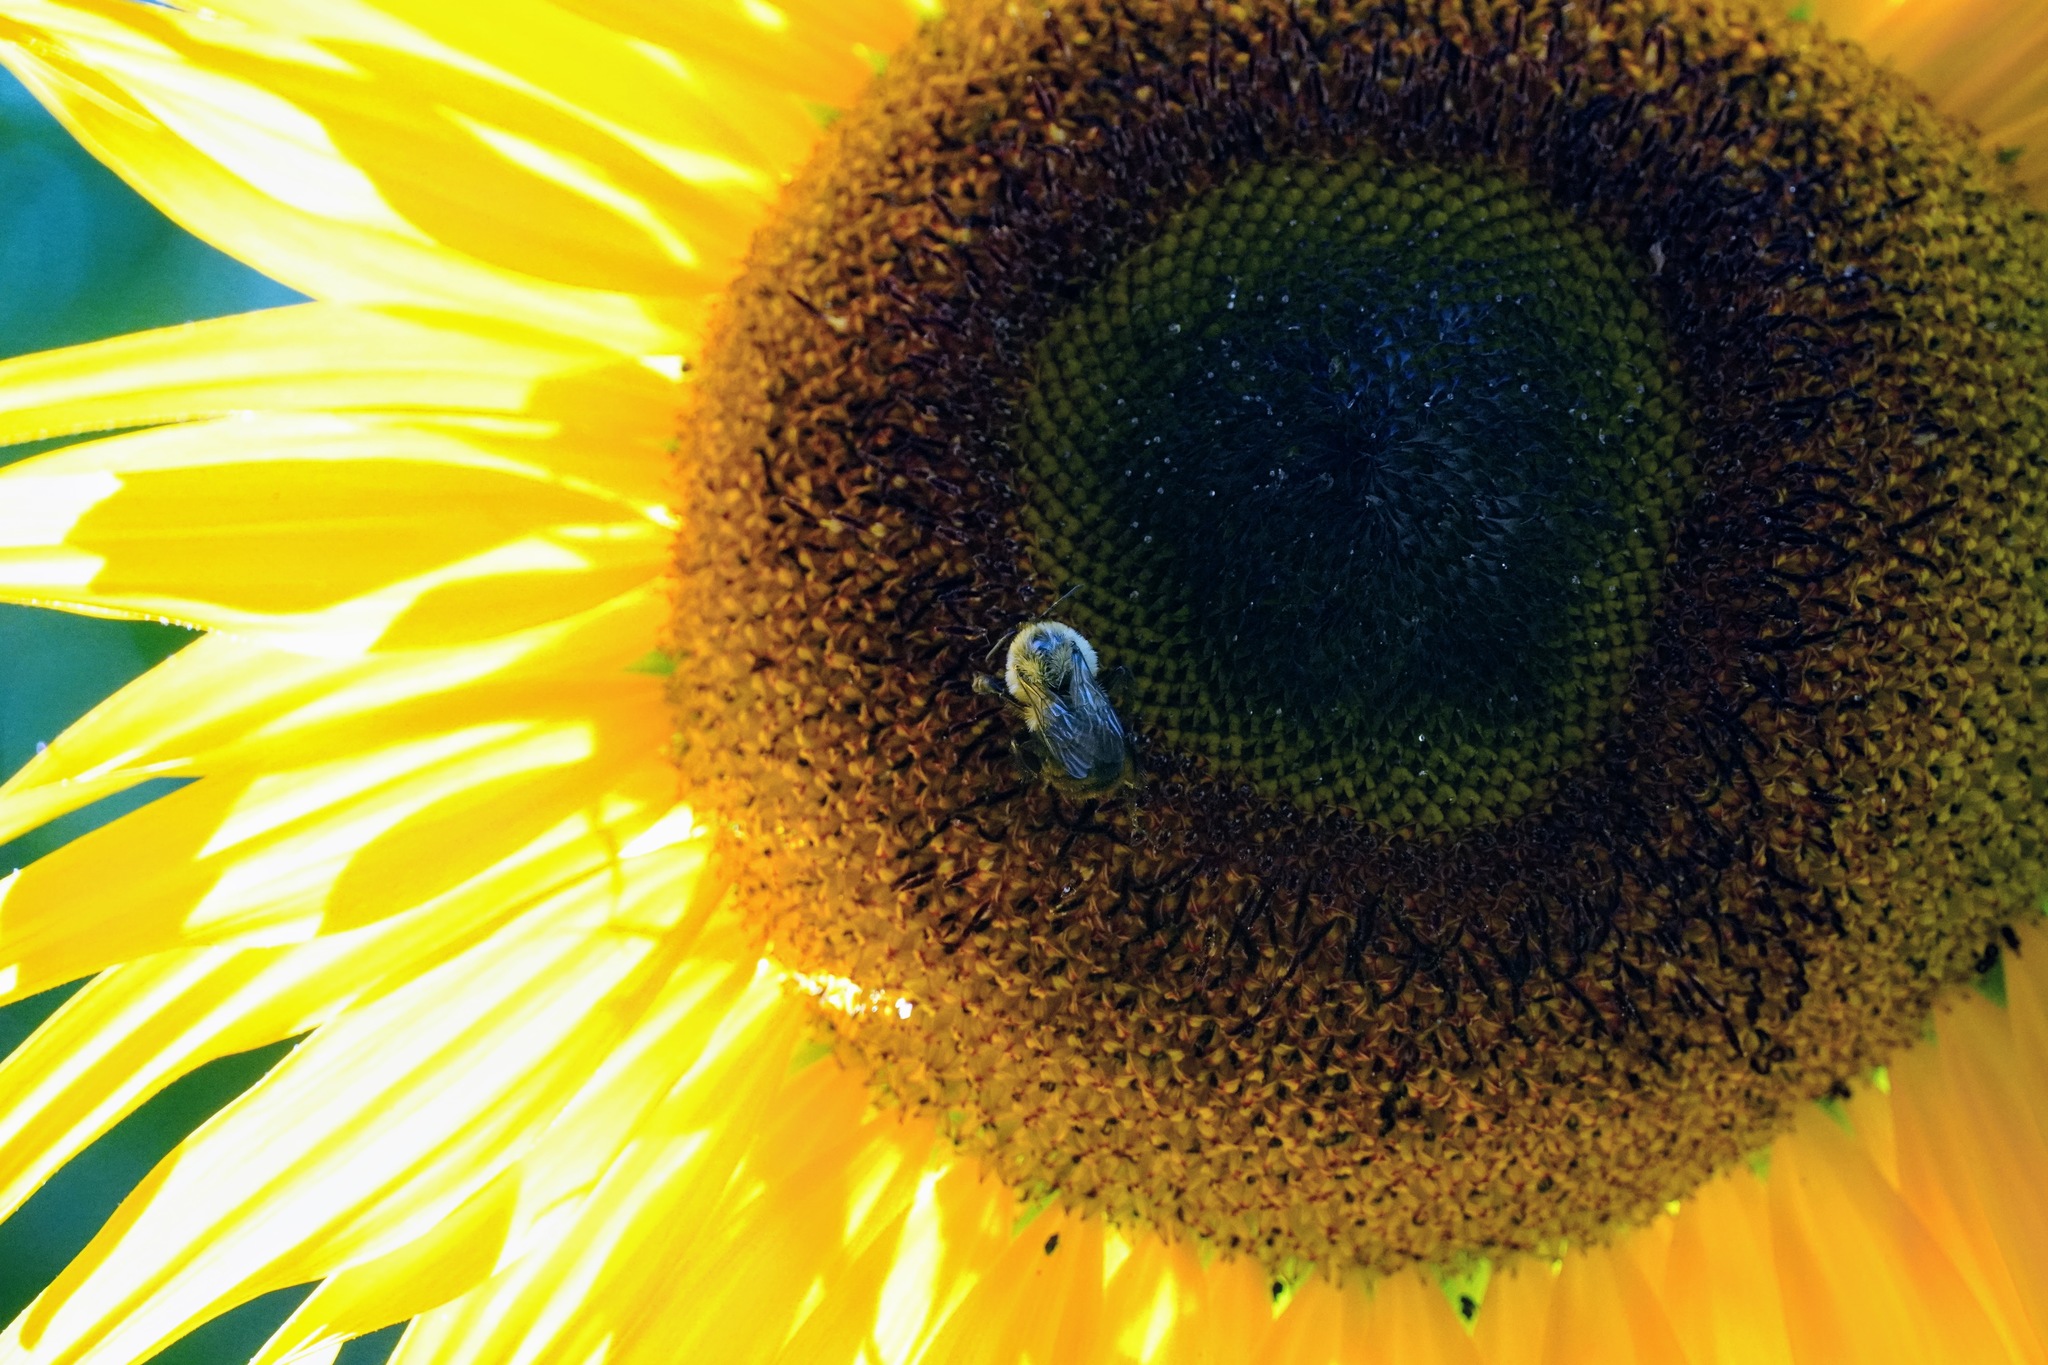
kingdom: Animalia
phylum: Arthropoda
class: Insecta
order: Hymenoptera
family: Apidae
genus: Bombus
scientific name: Bombus impatiens
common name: Common eastern bumble bee
